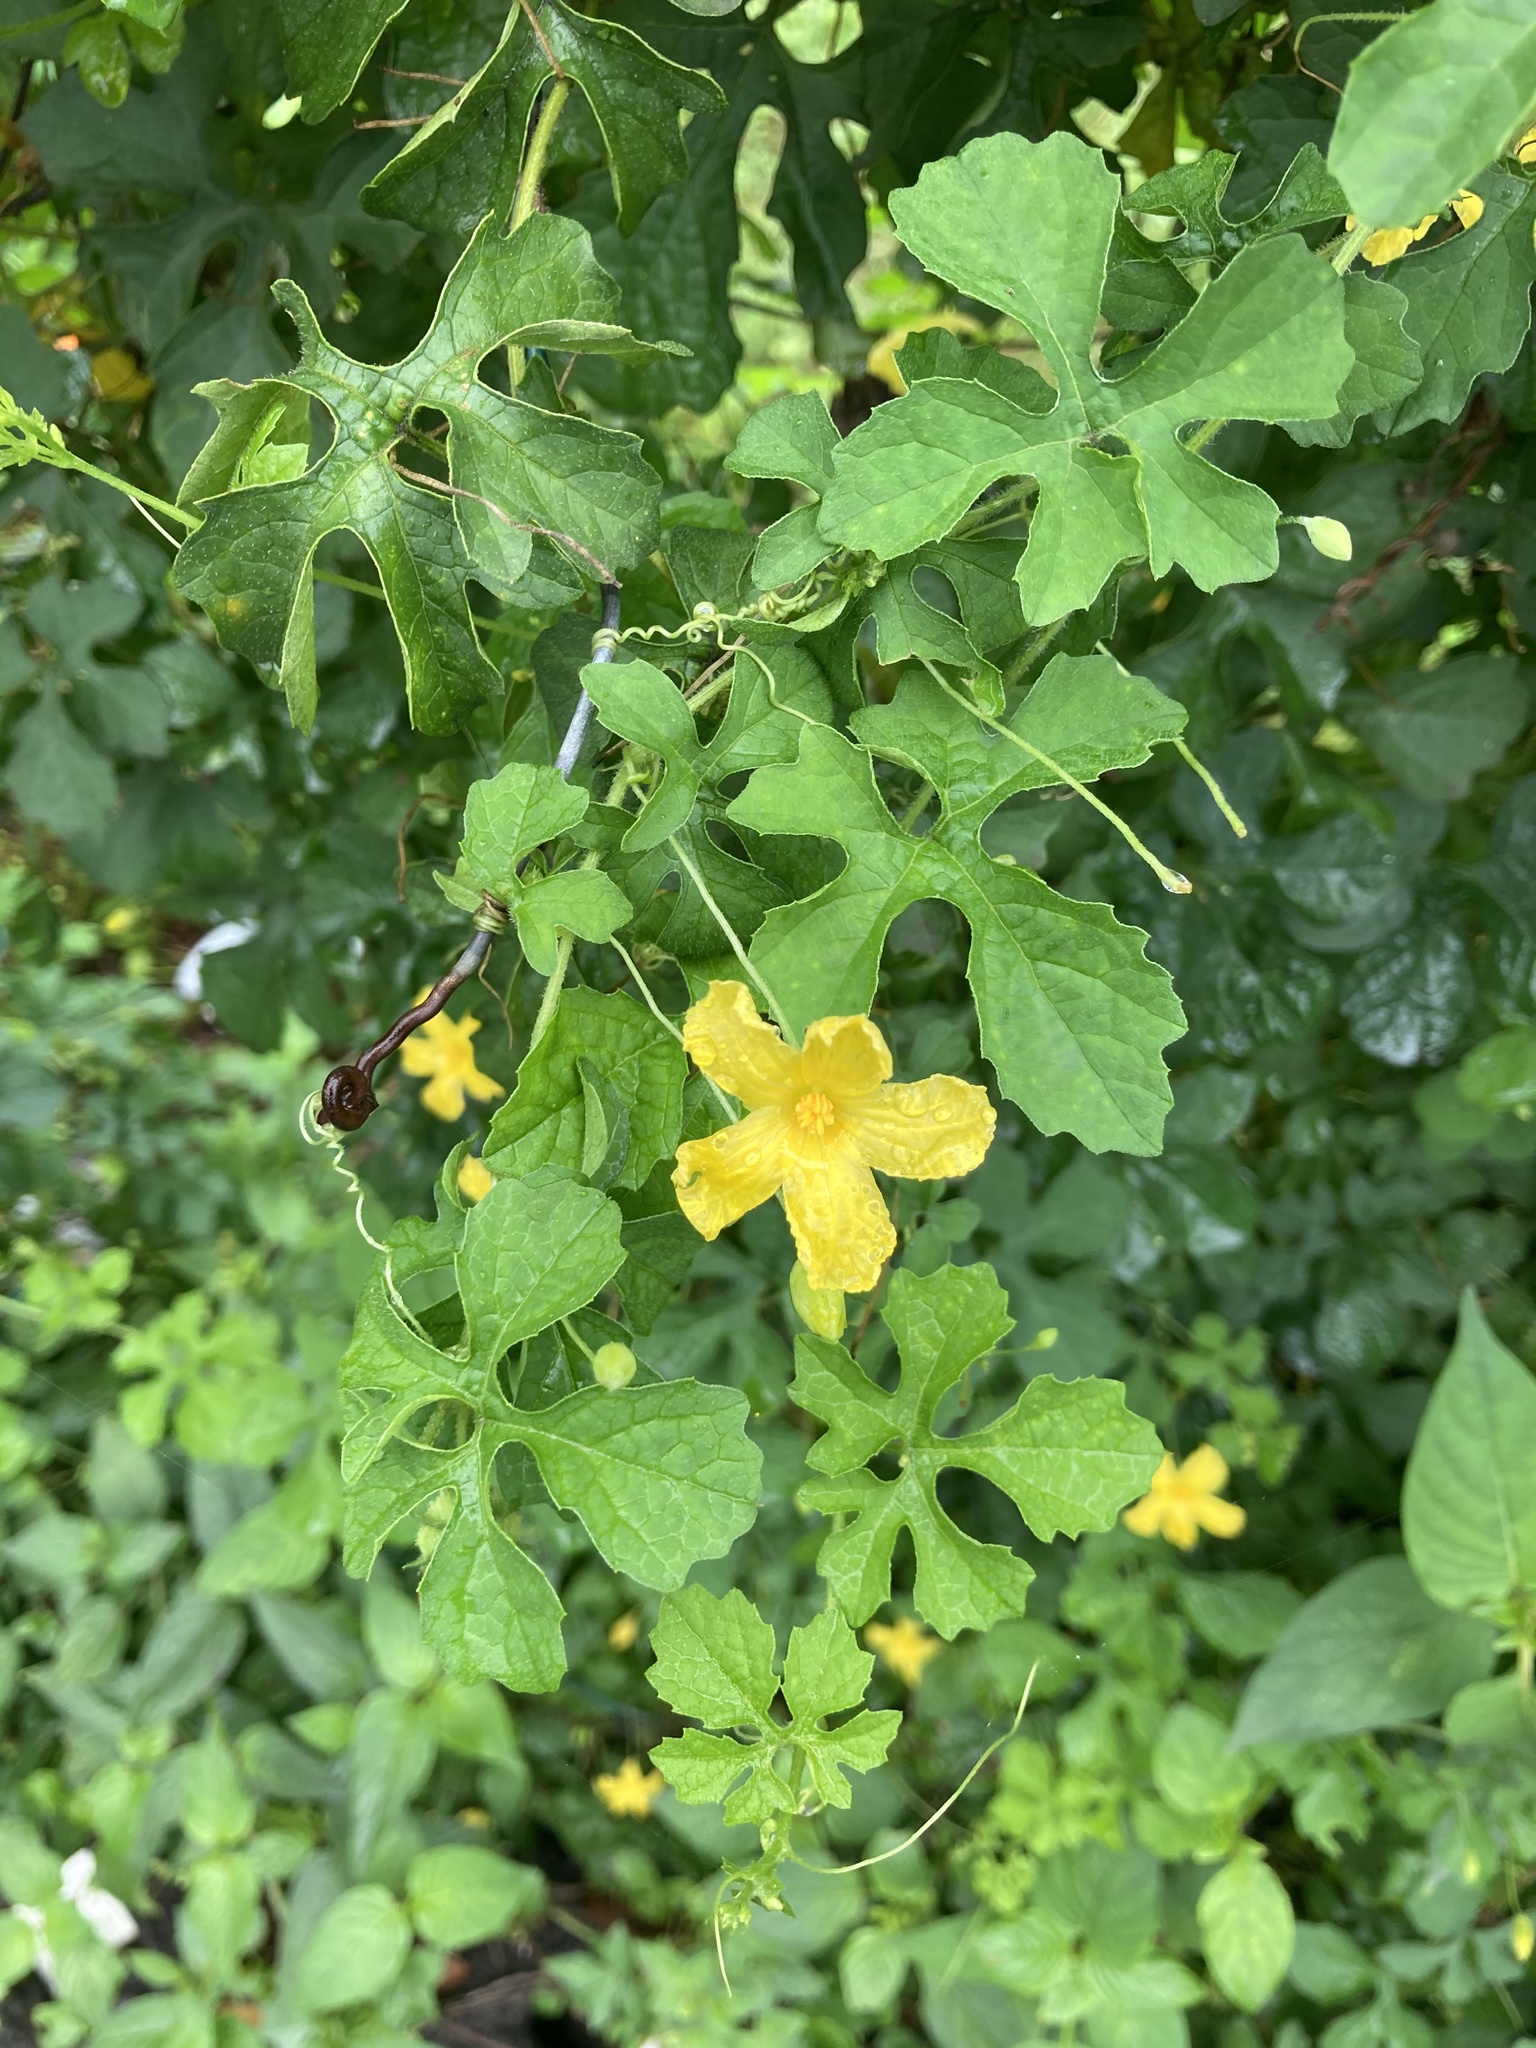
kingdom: Plantae
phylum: Tracheophyta
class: Magnoliopsida
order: Cucurbitales
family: Cucurbitaceae
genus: Momordica
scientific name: Momordica charantia
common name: Balsampear
